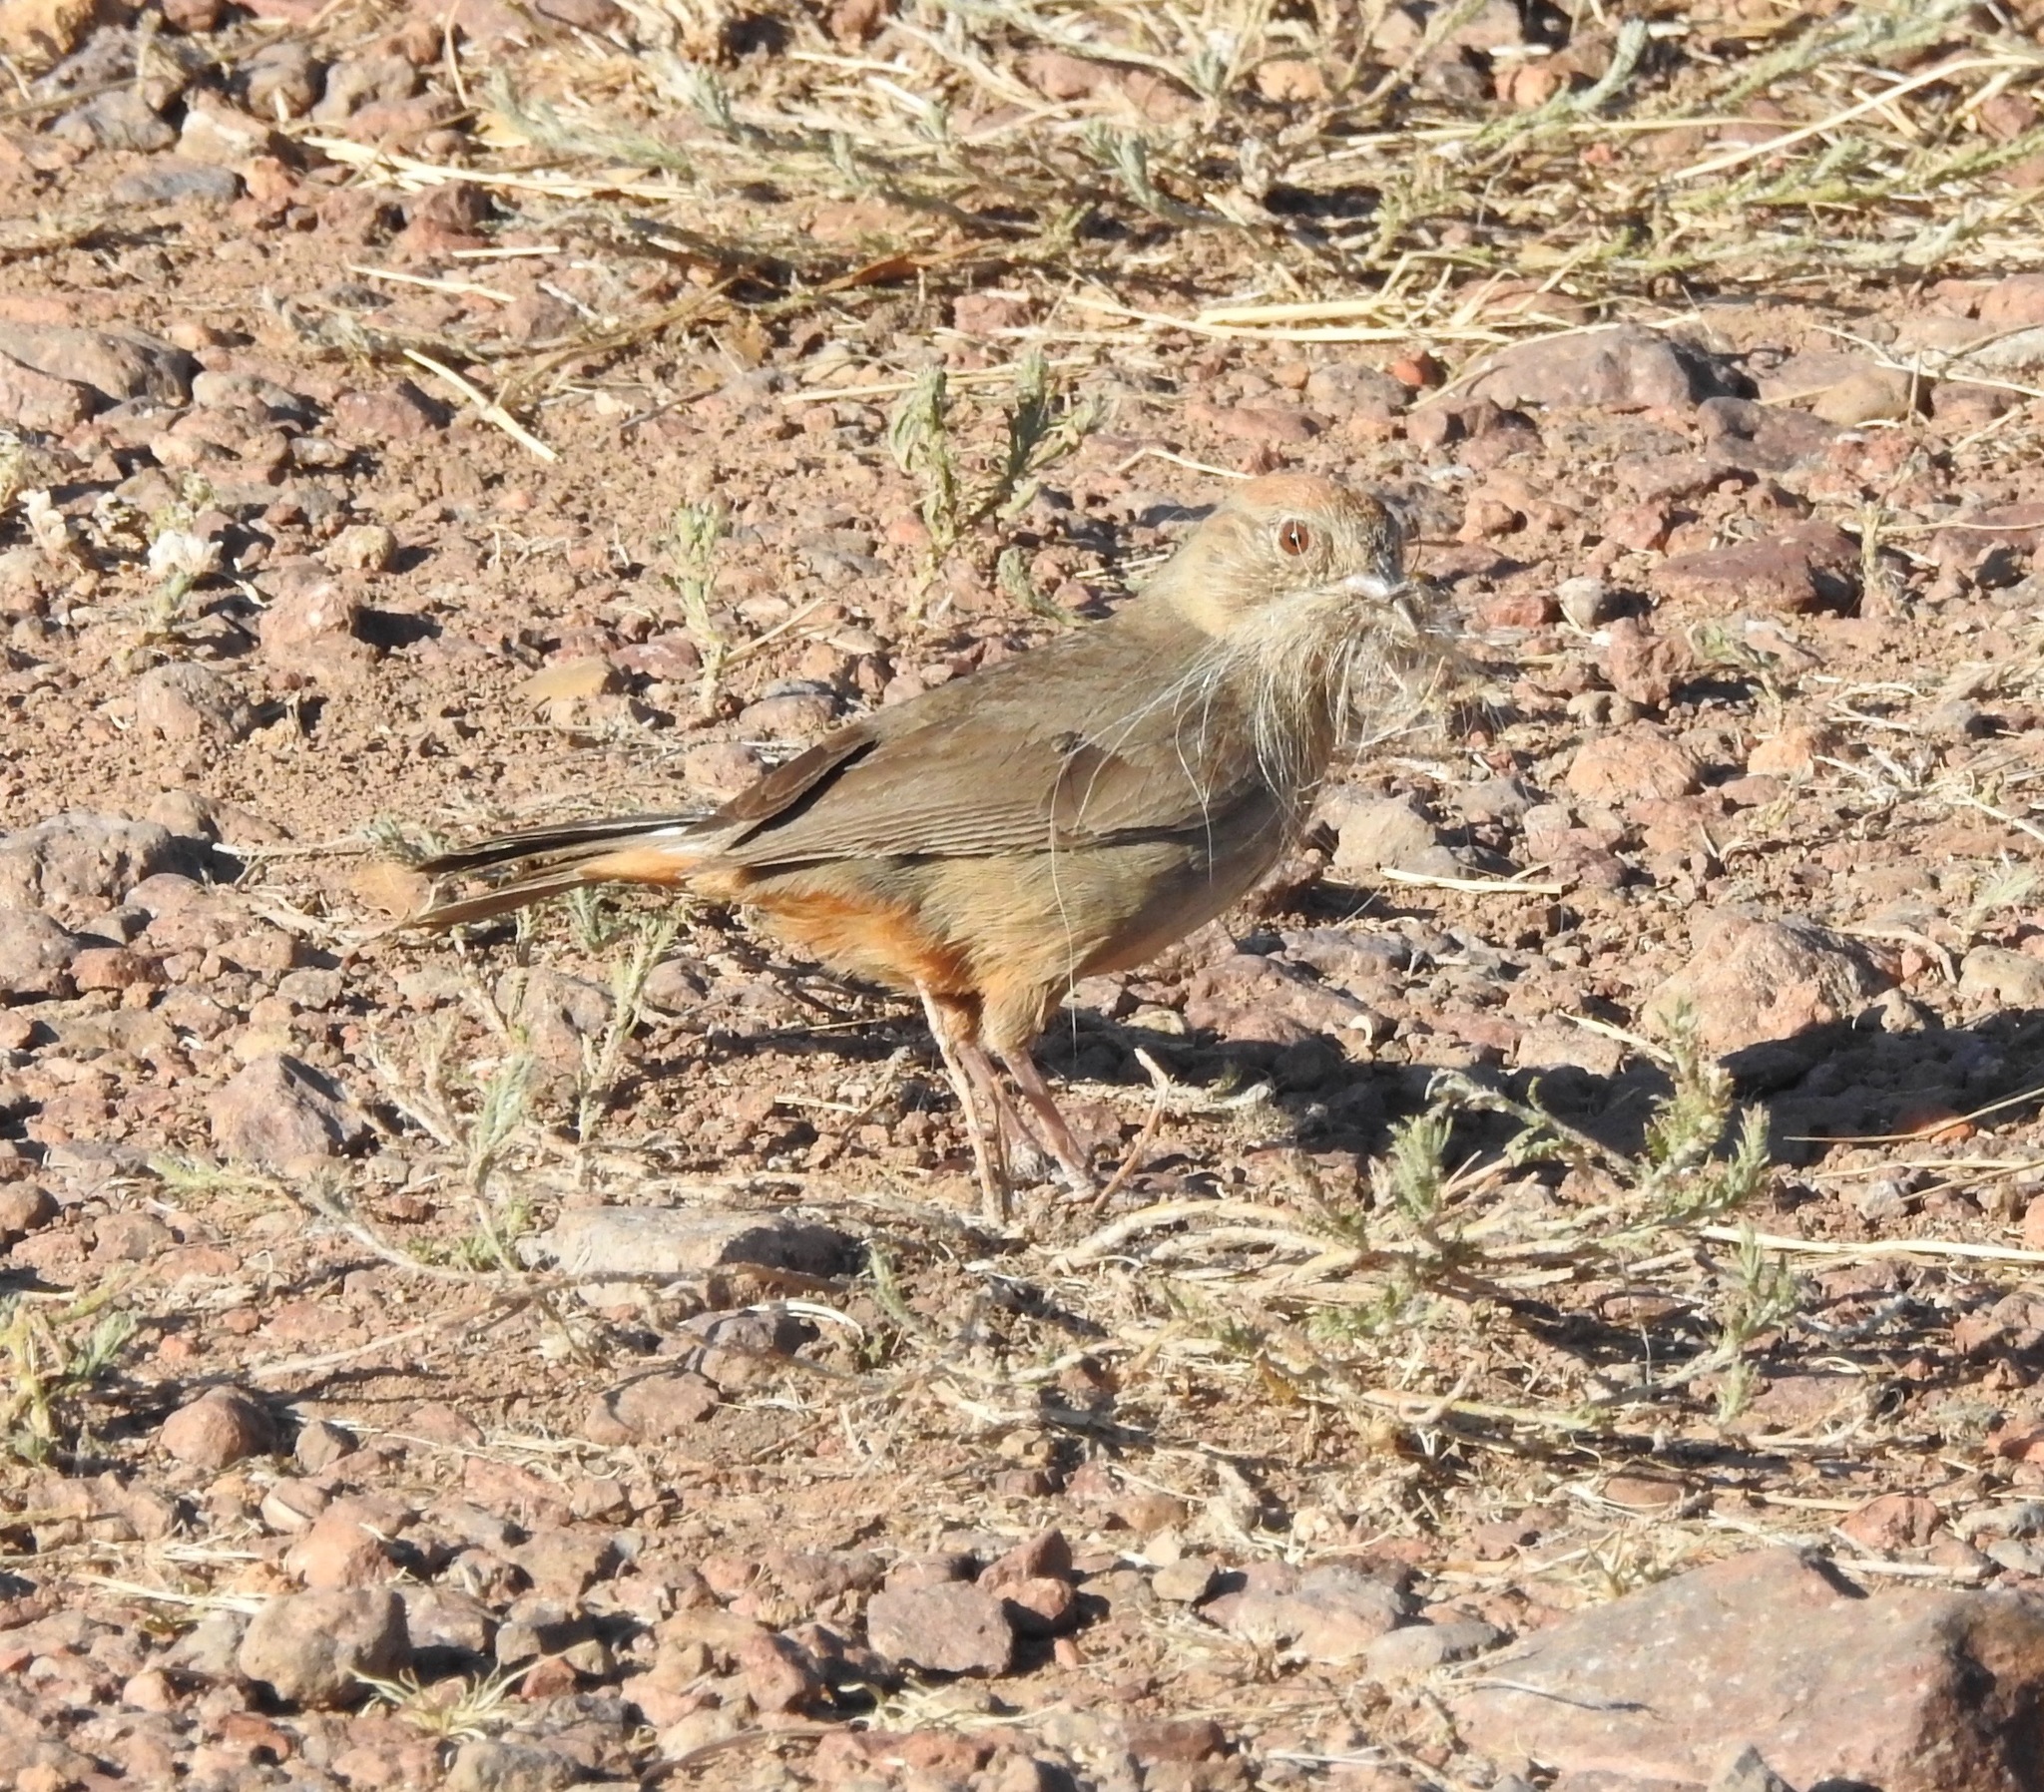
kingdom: Animalia
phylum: Chordata
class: Aves
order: Passeriformes
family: Passerellidae
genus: Melozone
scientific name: Melozone fusca
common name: Canyon towhee
